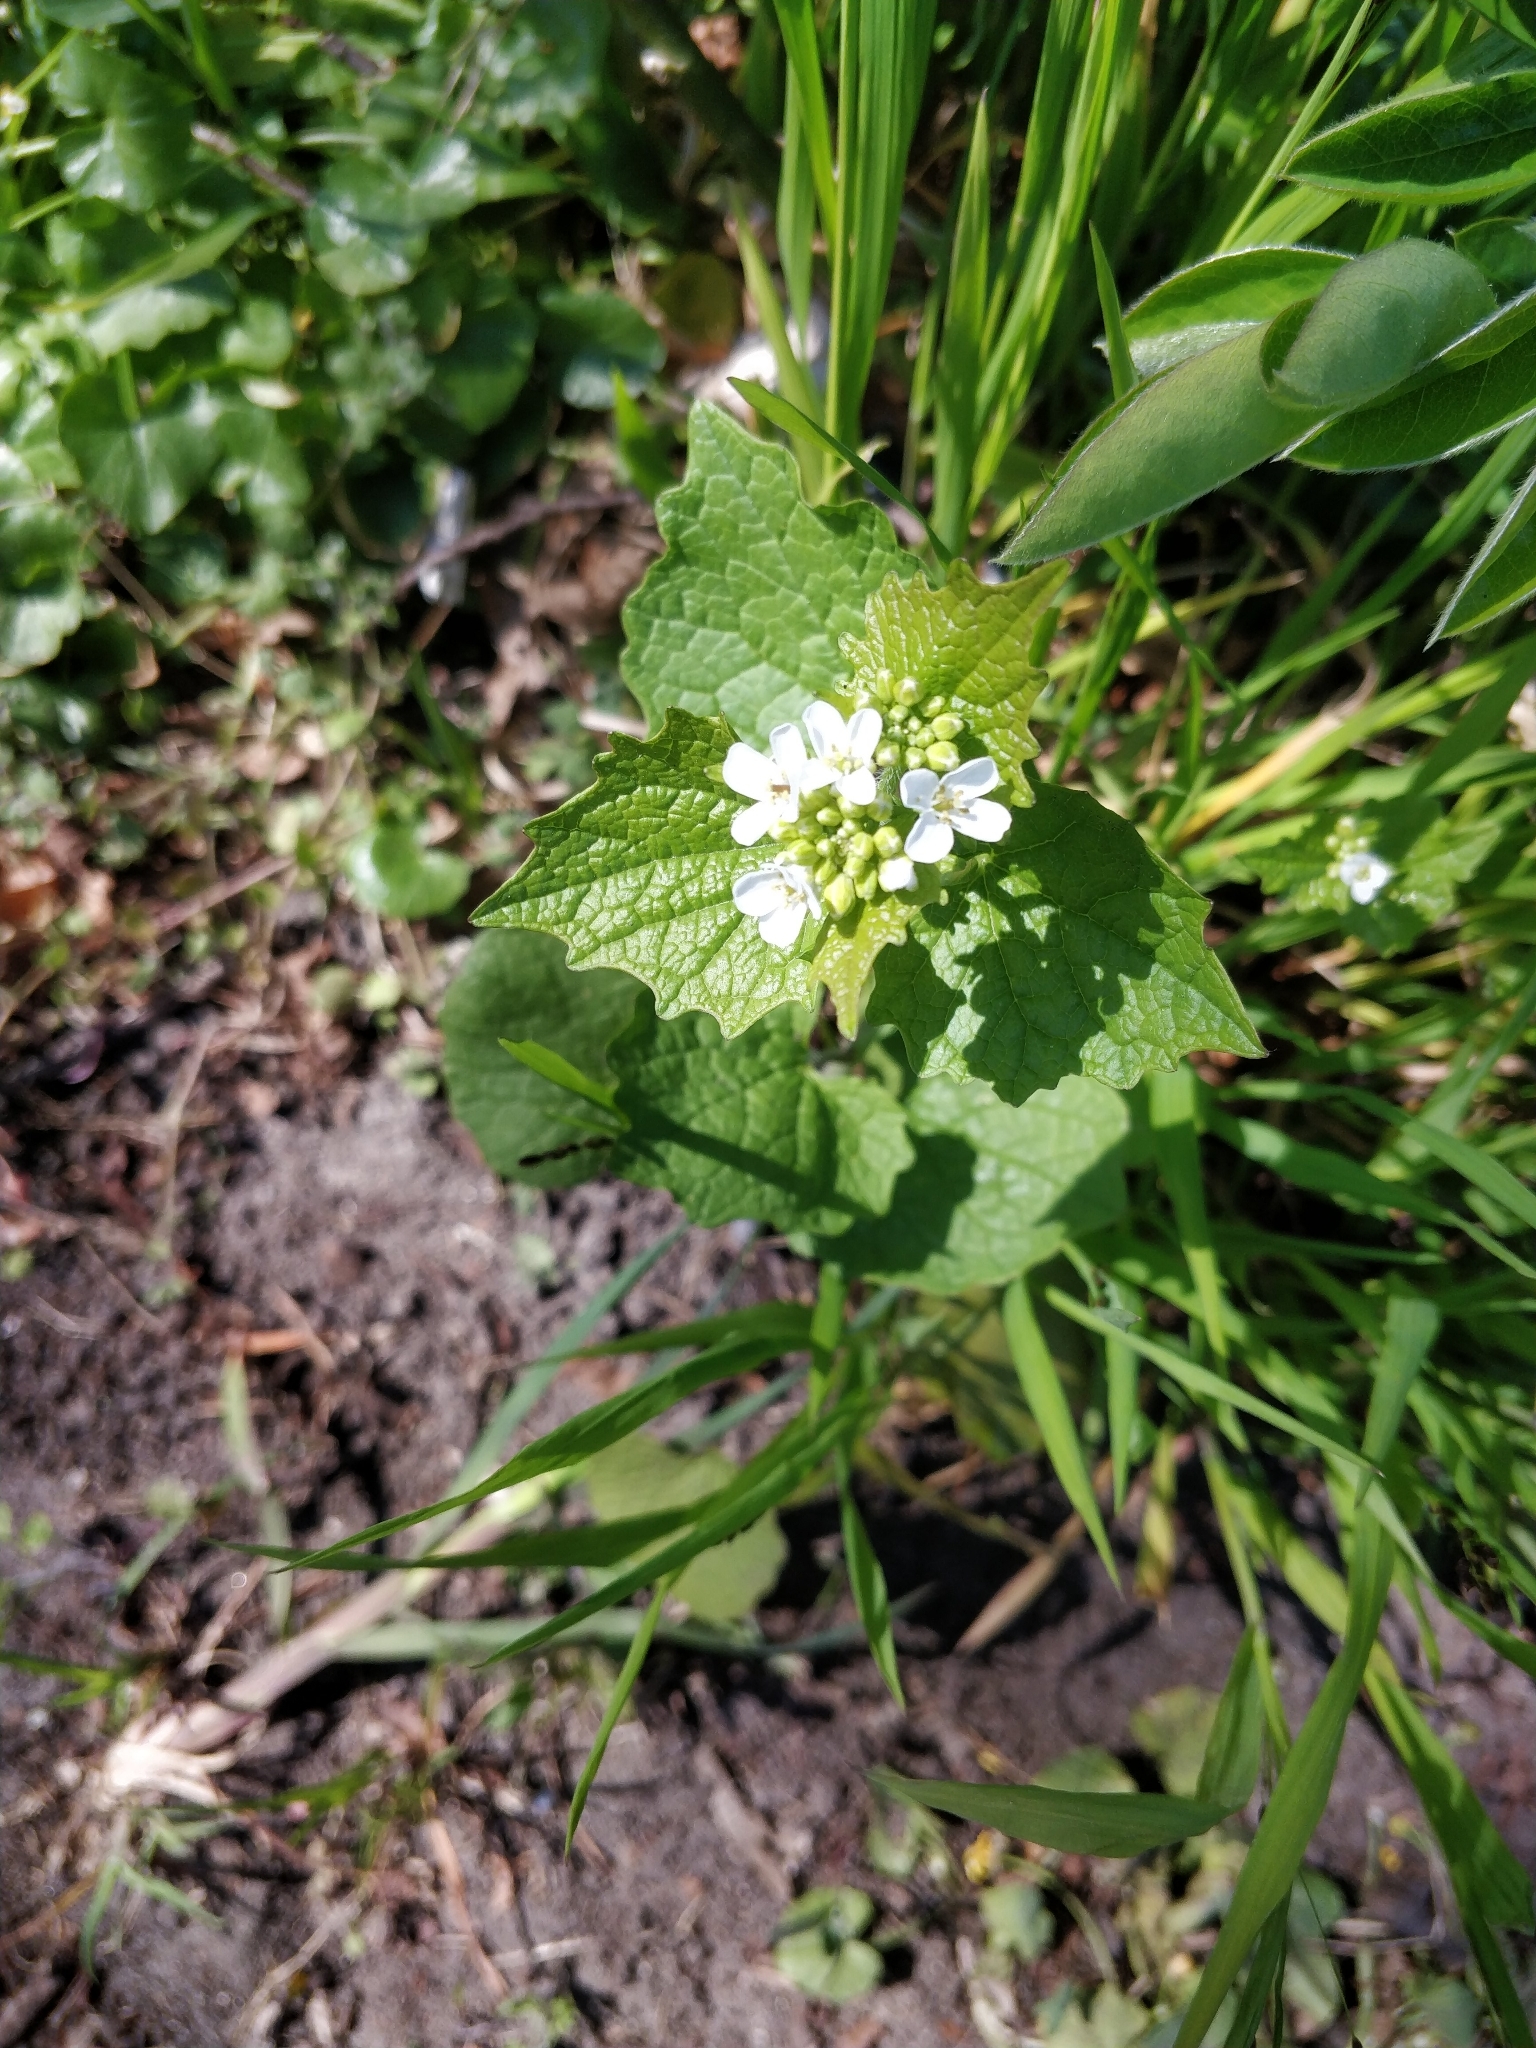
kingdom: Plantae
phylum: Tracheophyta
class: Magnoliopsida
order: Brassicales
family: Brassicaceae
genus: Alliaria
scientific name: Alliaria petiolata
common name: Garlic mustard
